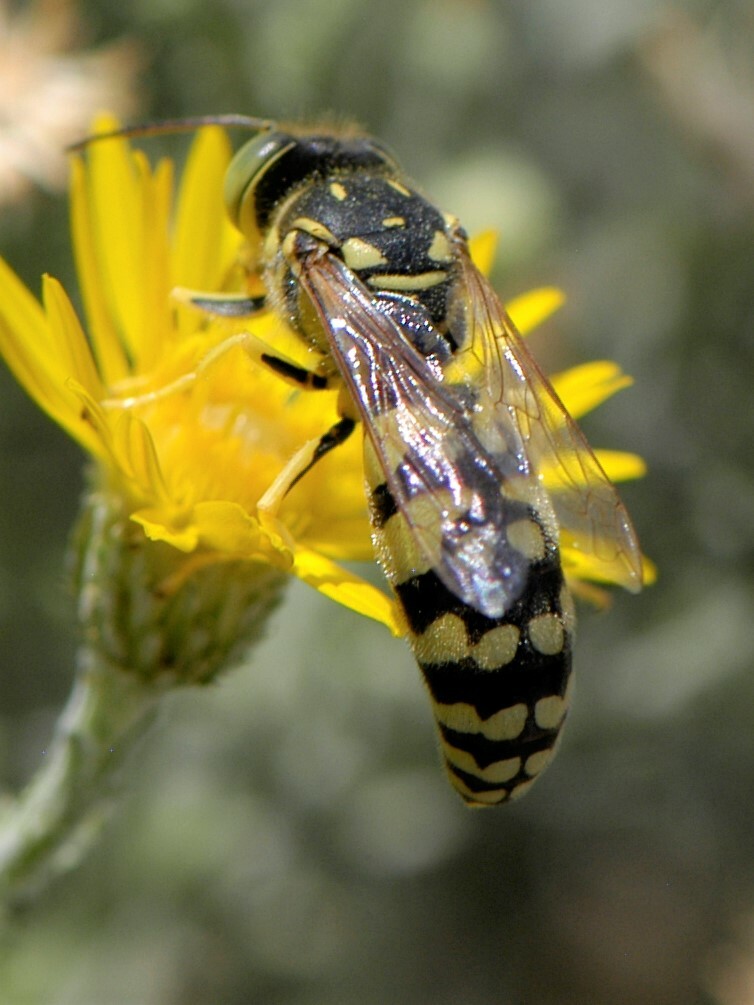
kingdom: Animalia
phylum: Arthropoda
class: Insecta
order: Hymenoptera
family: Crabronidae
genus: Steniolia
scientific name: Steniolia
